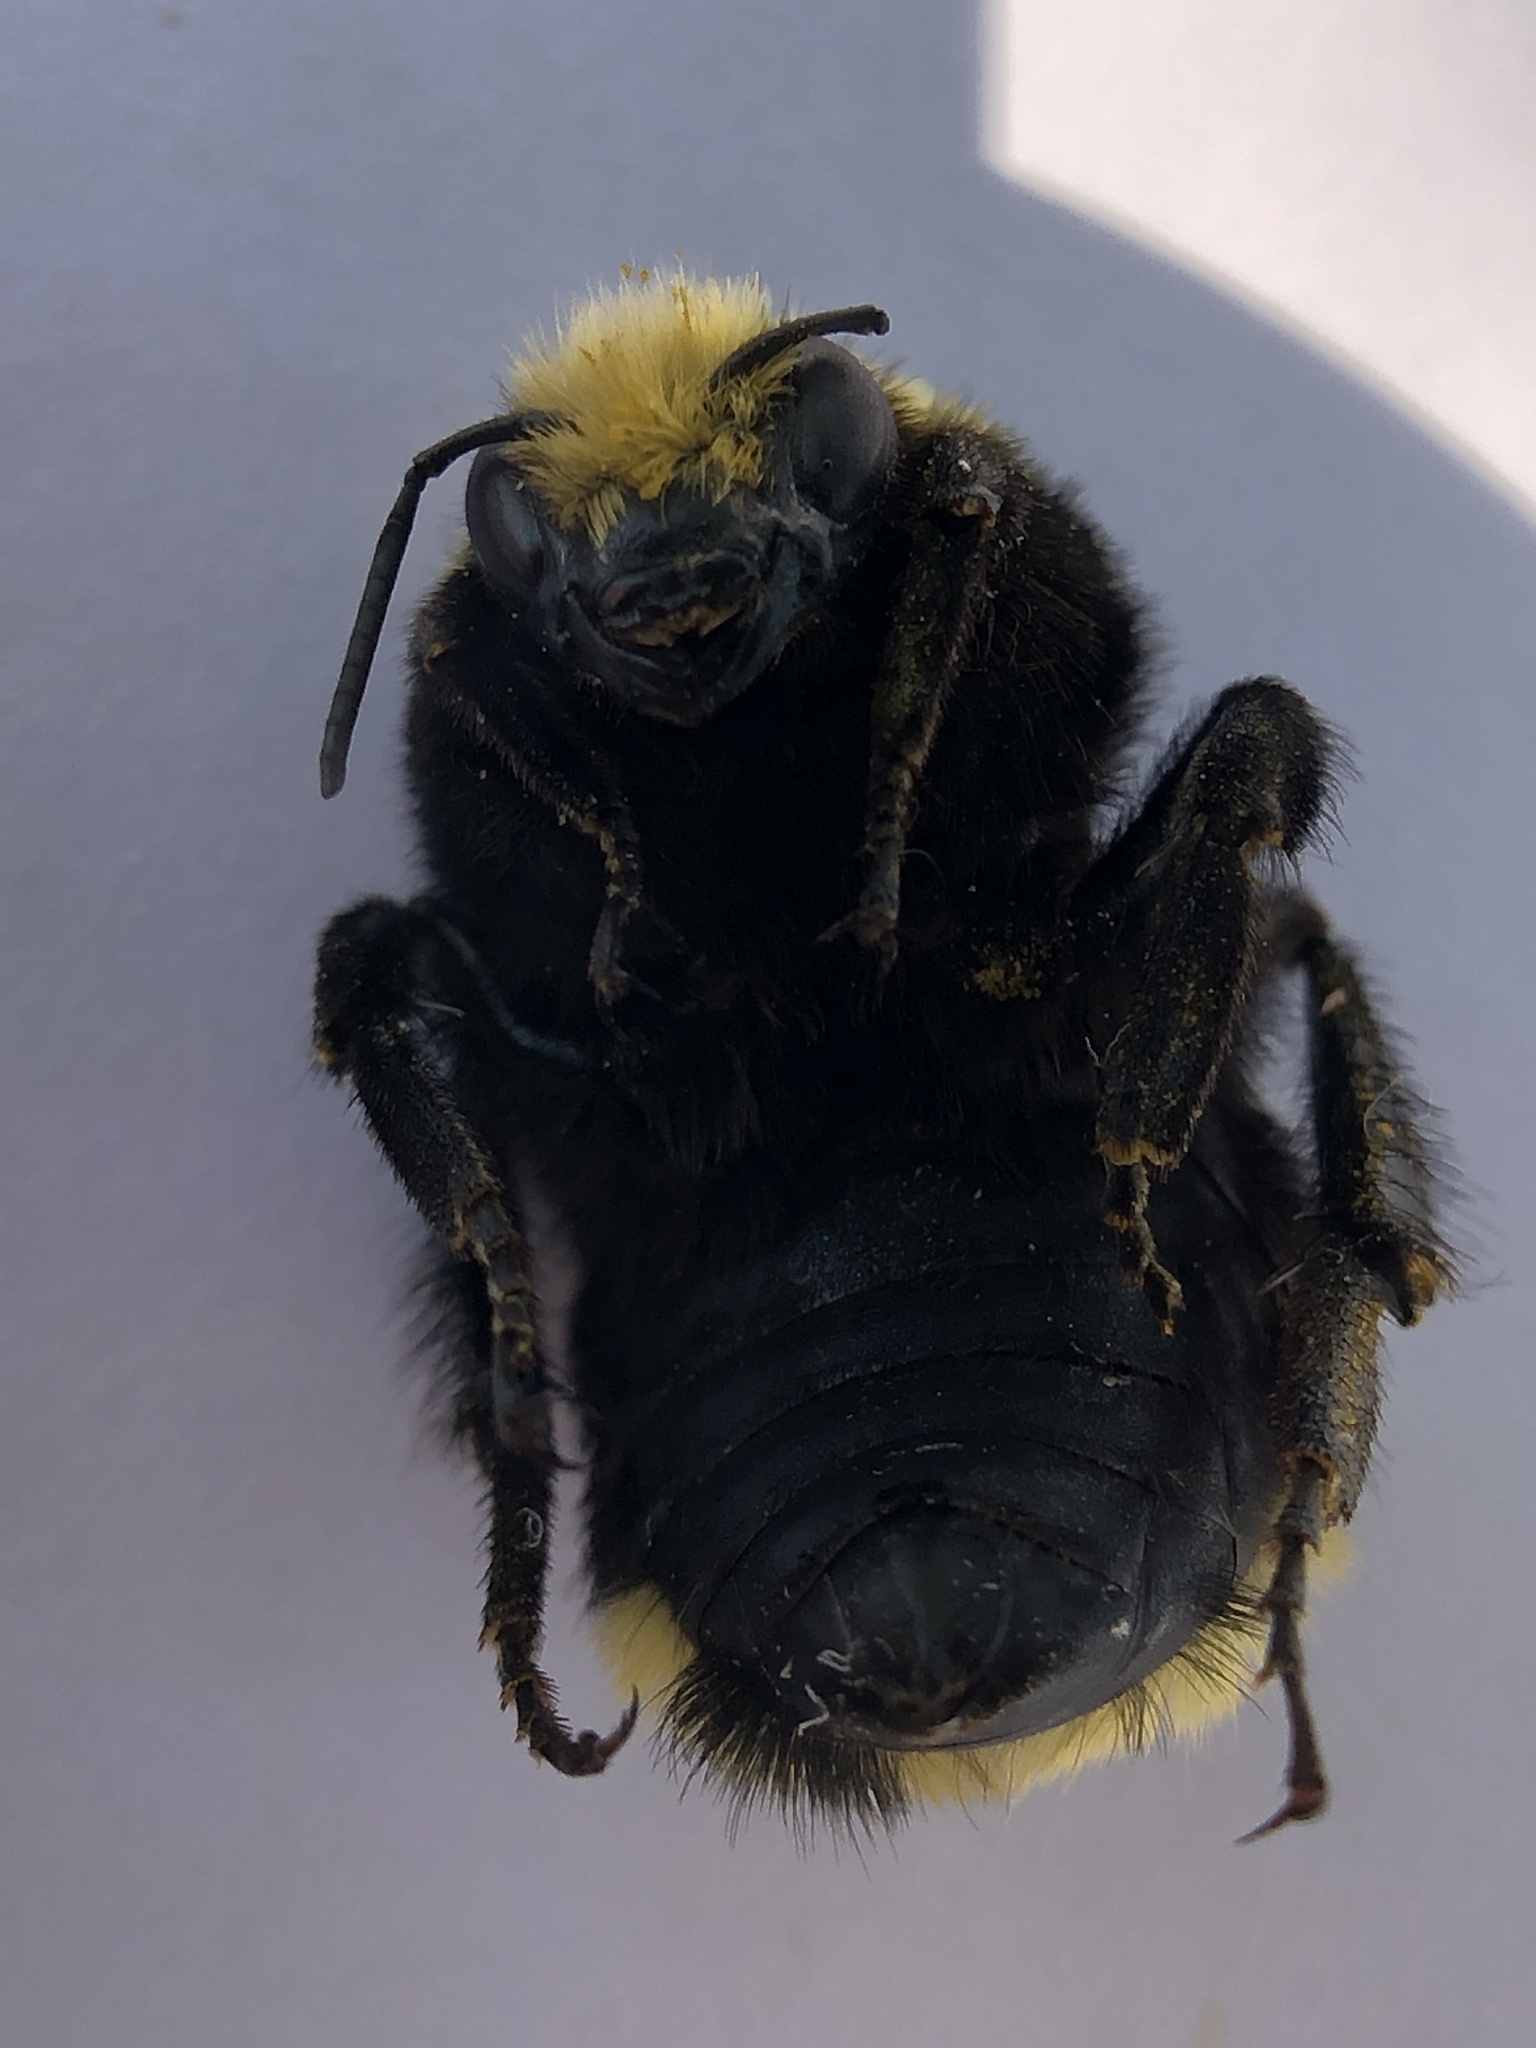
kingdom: Animalia
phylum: Arthropoda
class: Insecta
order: Hymenoptera
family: Apidae
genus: Bombus
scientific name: Bombus vosnesenskii
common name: Vosnesensky bumble bee
